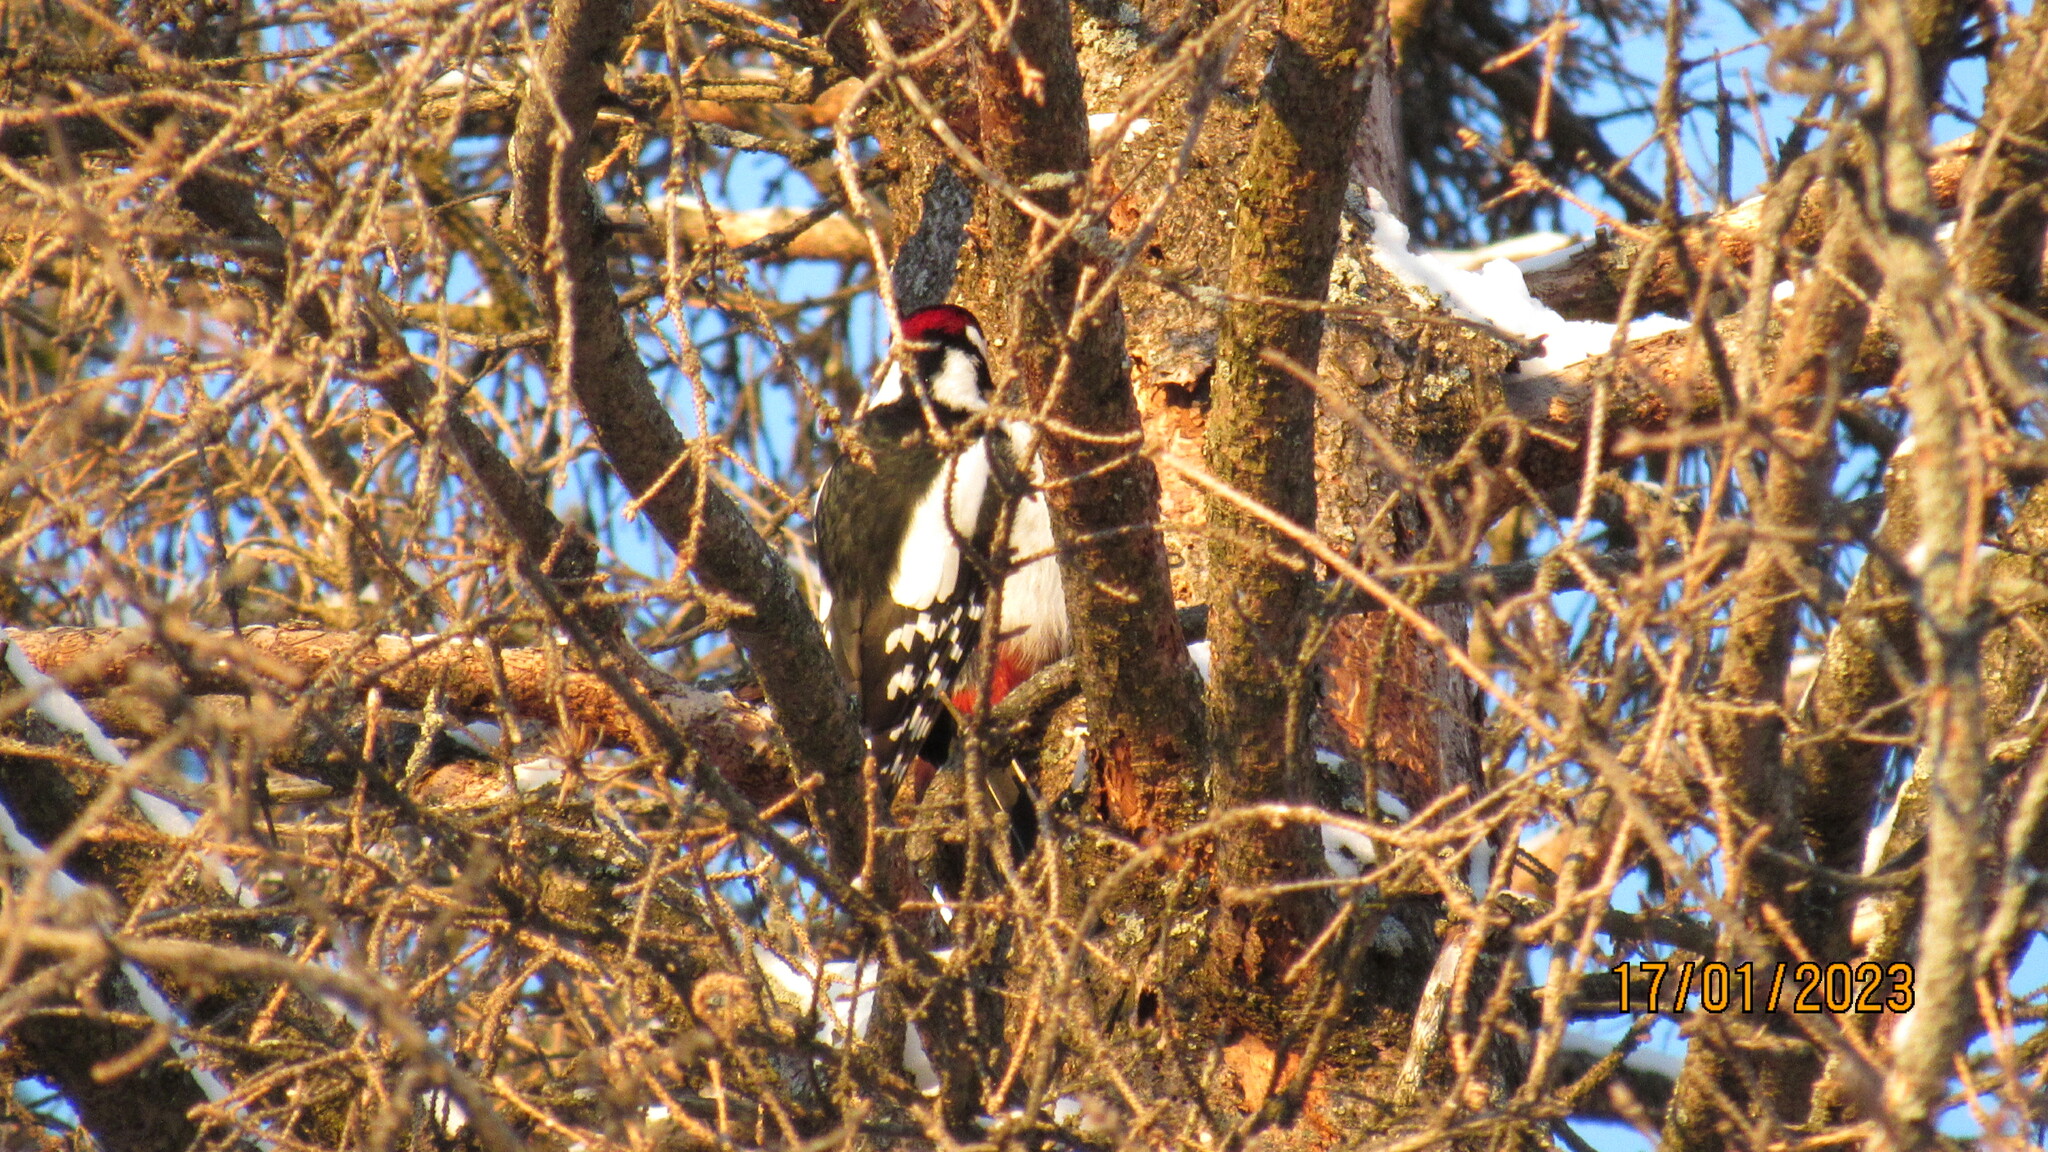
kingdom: Animalia
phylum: Chordata
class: Aves
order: Piciformes
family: Picidae
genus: Dendrocopos
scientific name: Dendrocopos major
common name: Great spotted woodpecker
